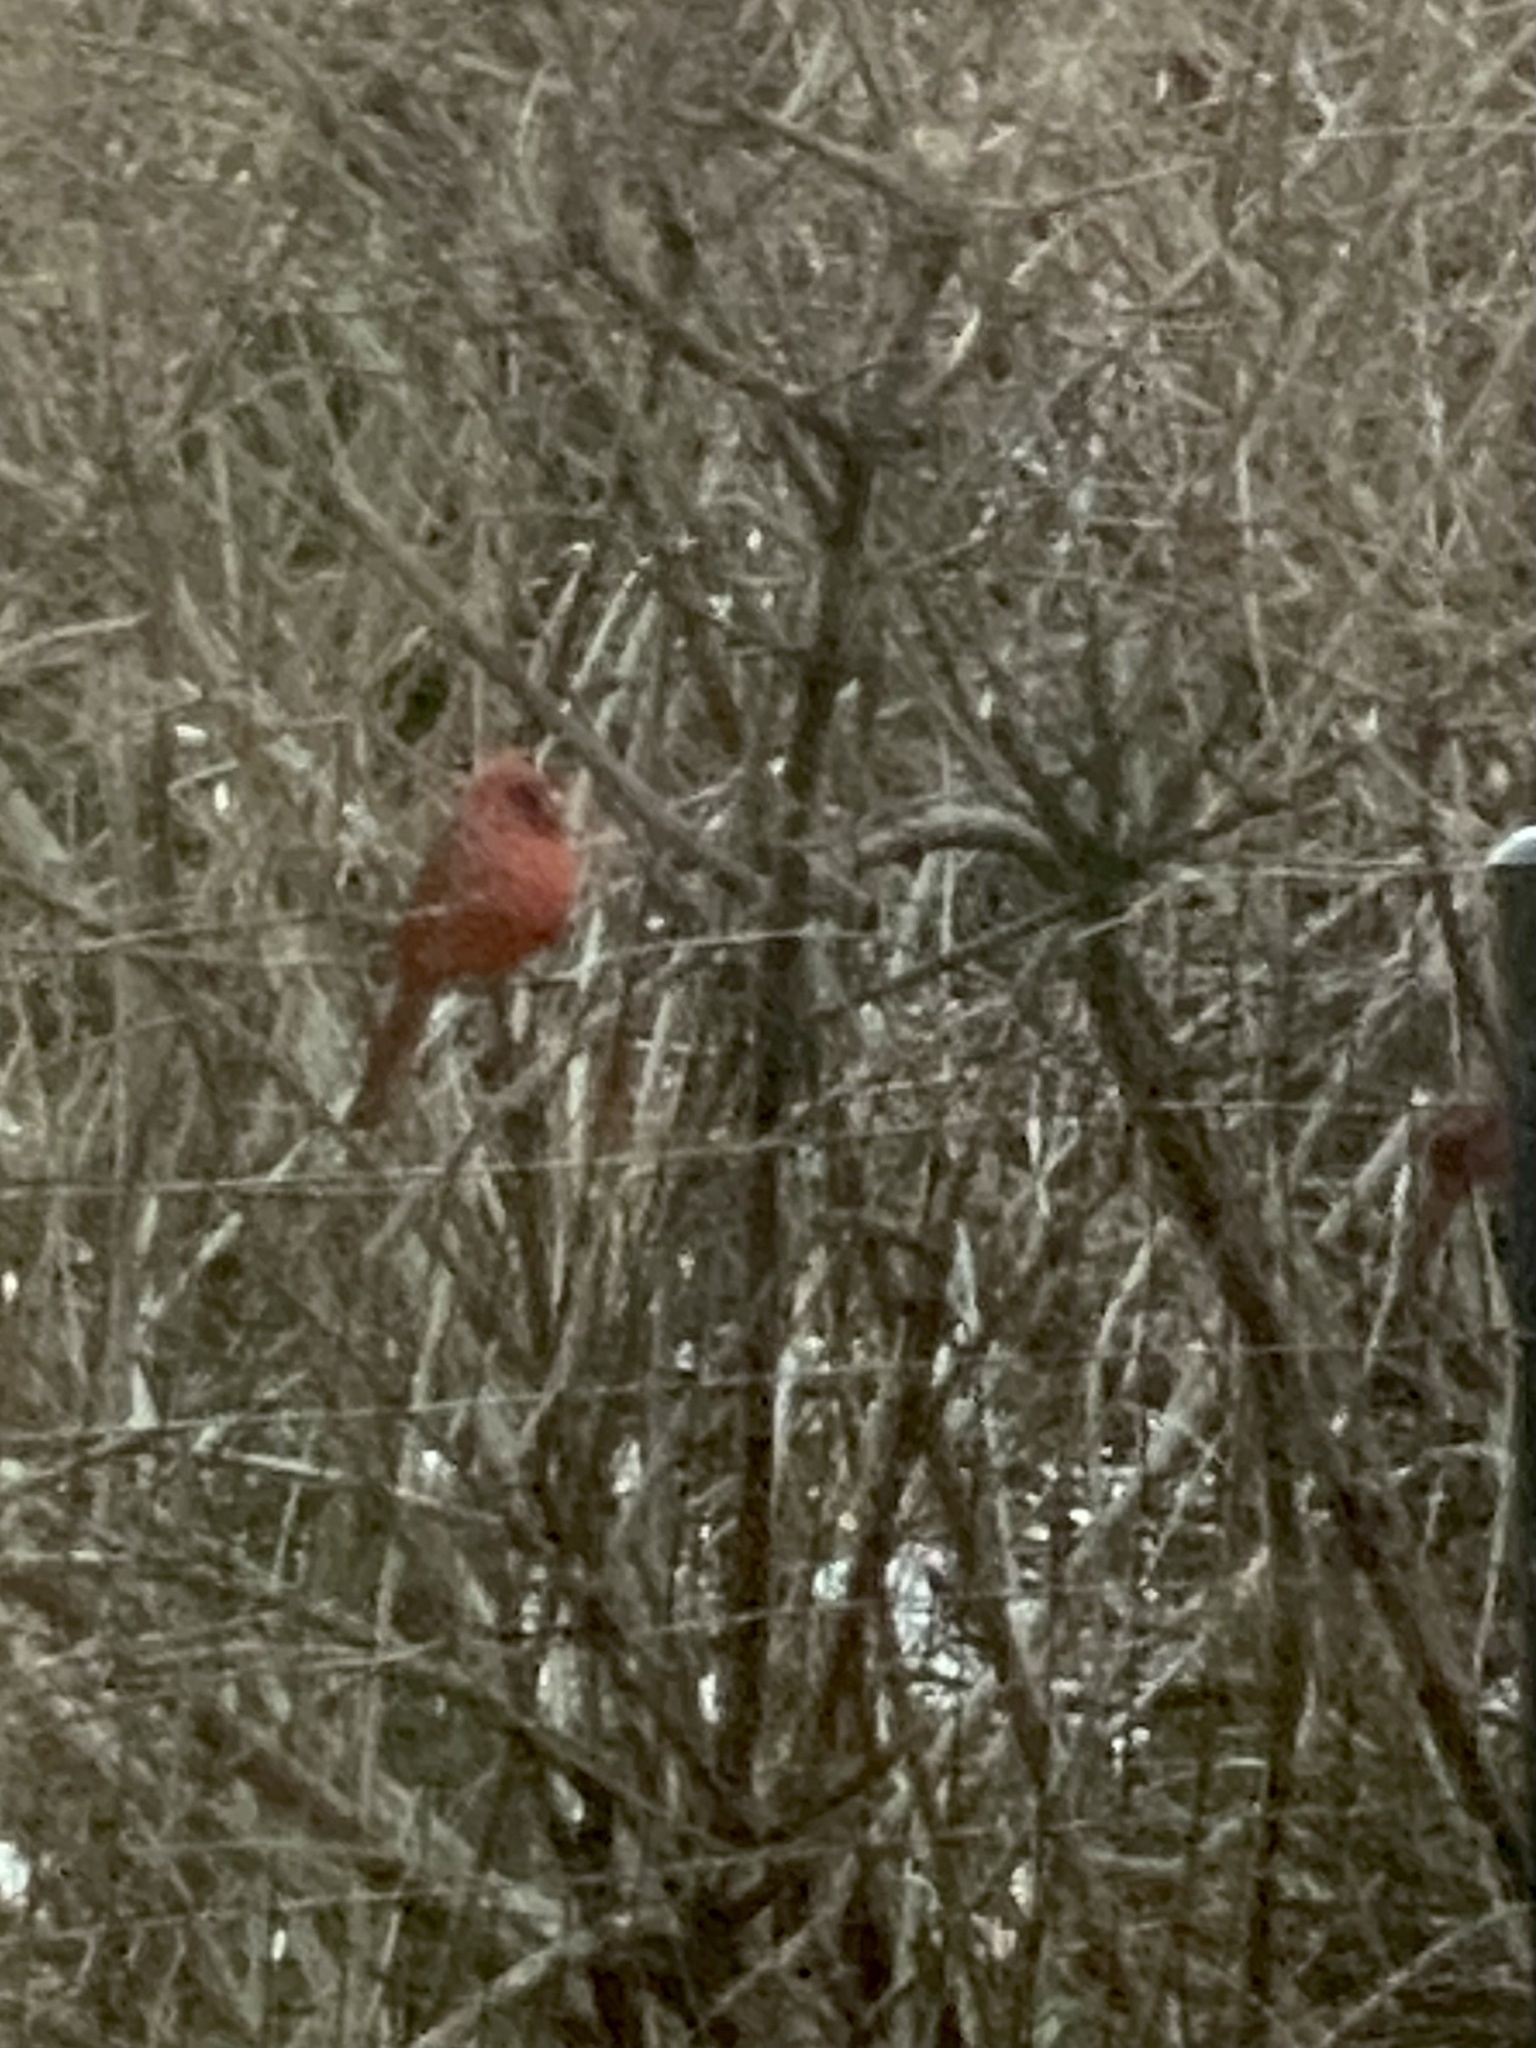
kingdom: Animalia
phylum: Chordata
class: Aves
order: Passeriformes
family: Cardinalidae
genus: Cardinalis
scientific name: Cardinalis cardinalis
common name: Northern cardinal
